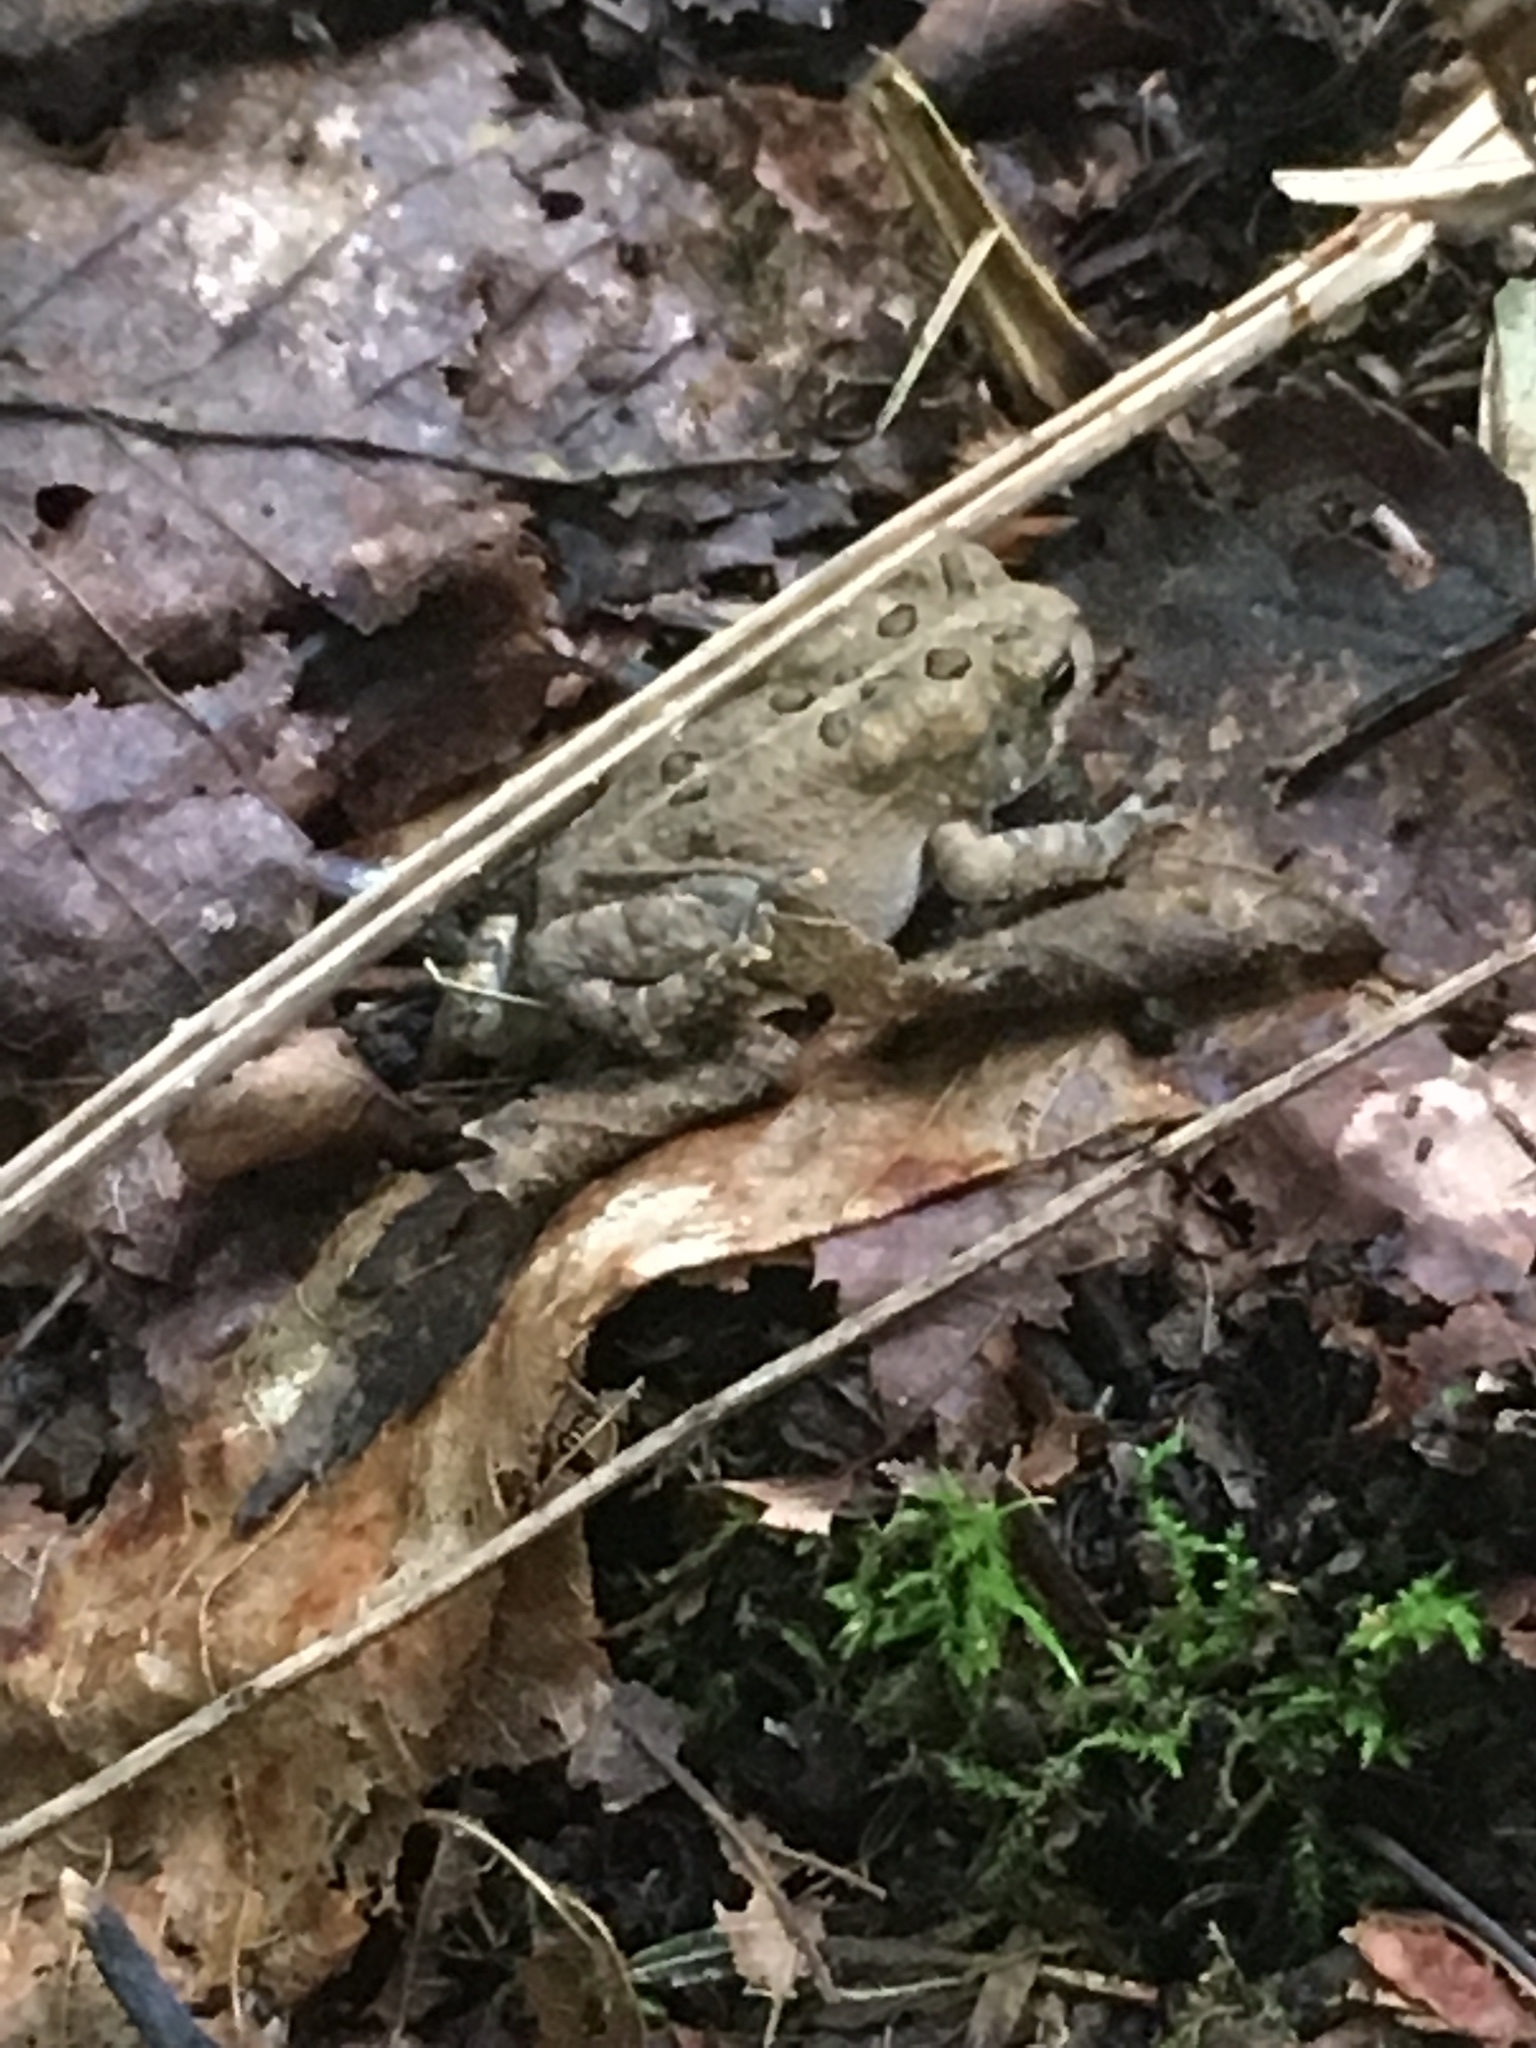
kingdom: Animalia
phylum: Chordata
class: Amphibia
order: Anura
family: Bufonidae
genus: Anaxyrus
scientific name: Anaxyrus americanus
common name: American toad
